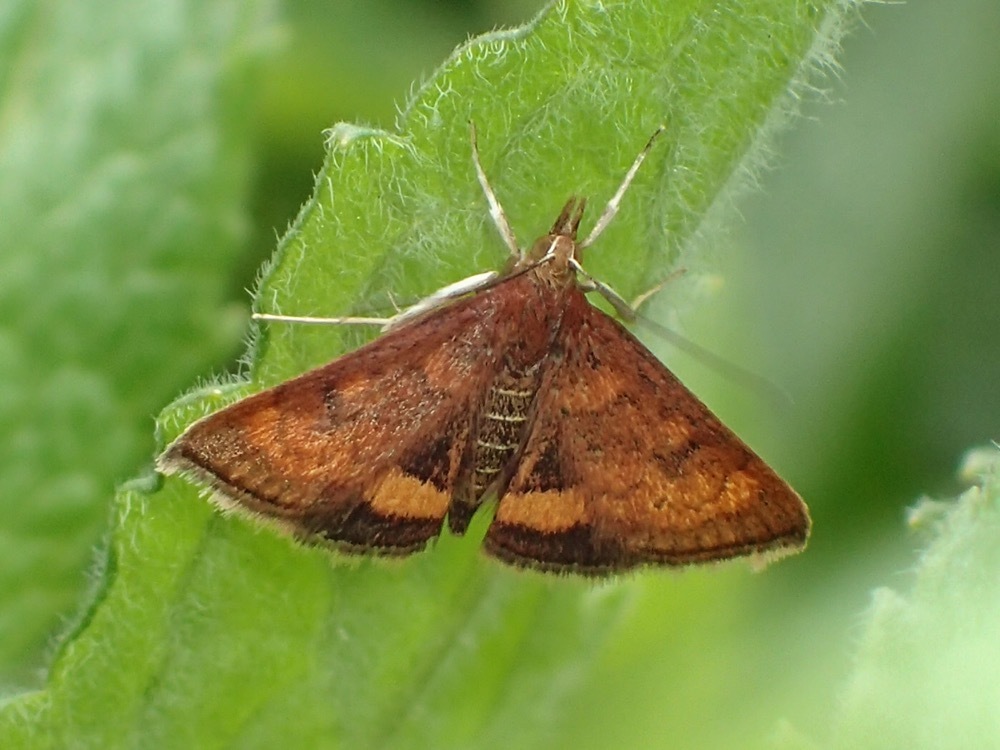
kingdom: Animalia
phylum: Arthropoda
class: Insecta
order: Lepidoptera
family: Crambidae
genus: Pyrausta
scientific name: Pyrausta californicalis
